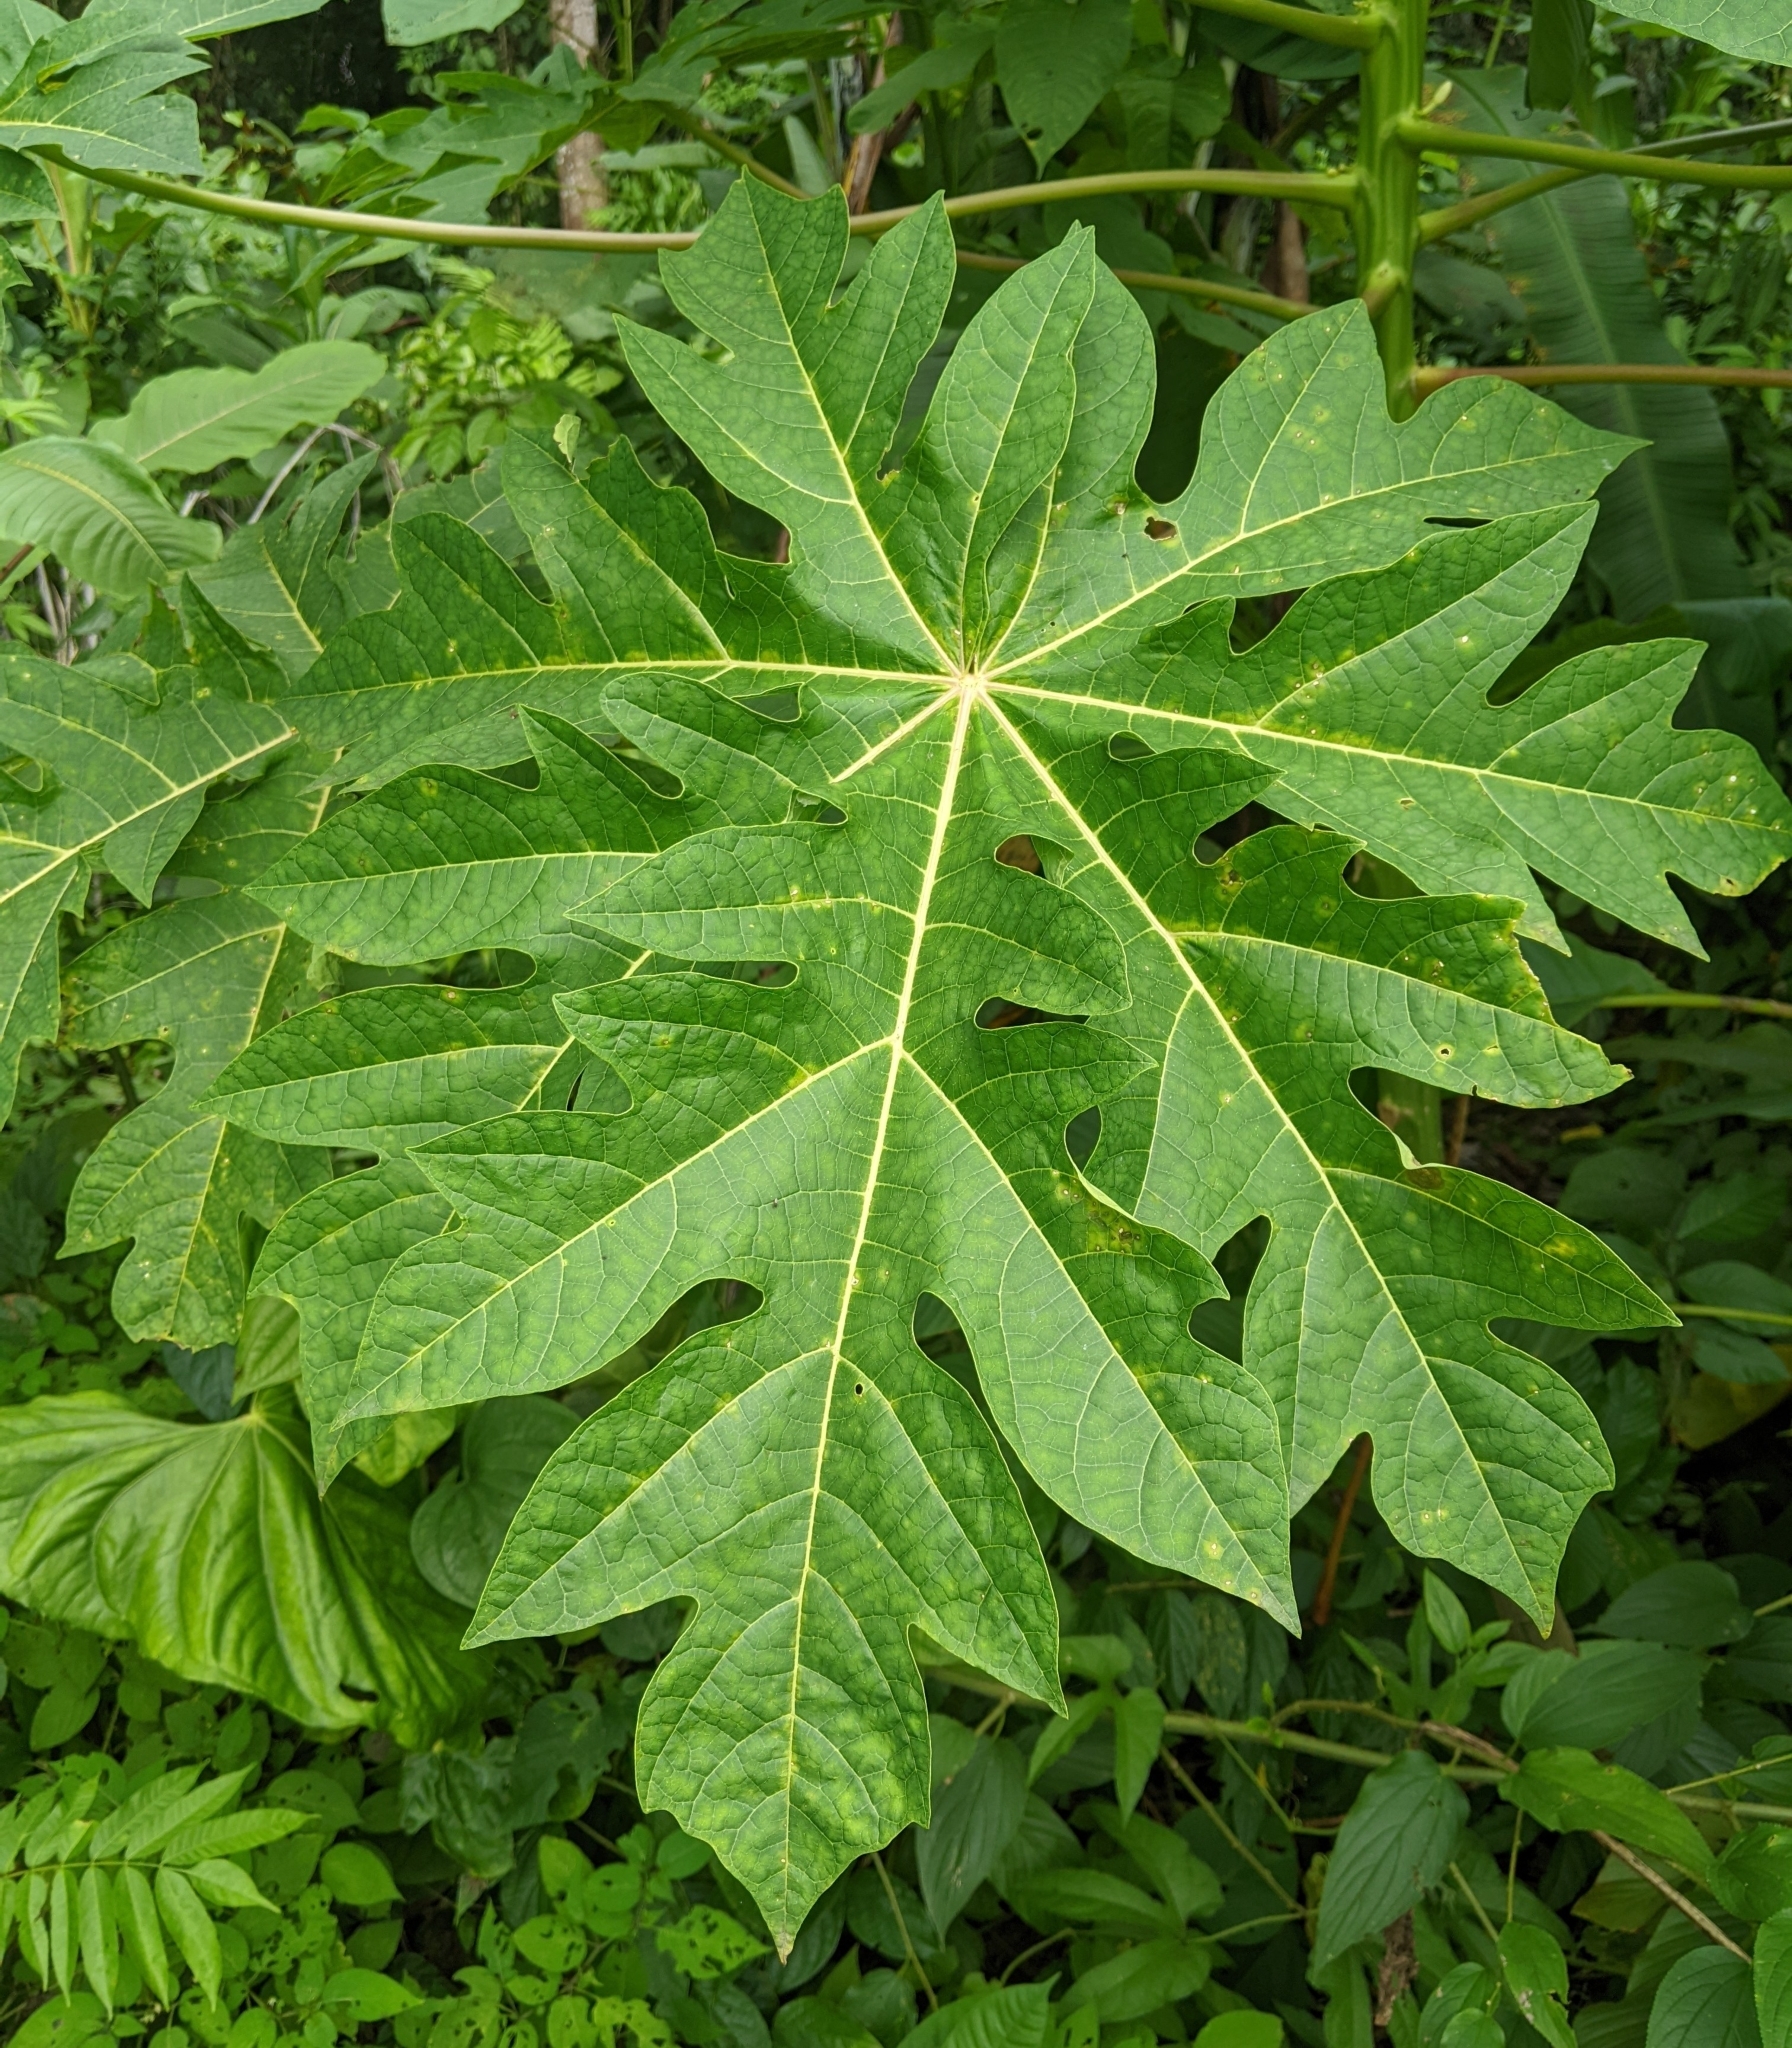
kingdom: Plantae
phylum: Tracheophyta
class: Magnoliopsida
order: Brassicales
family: Caricaceae
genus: Carica
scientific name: Carica papaya
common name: Papaya
